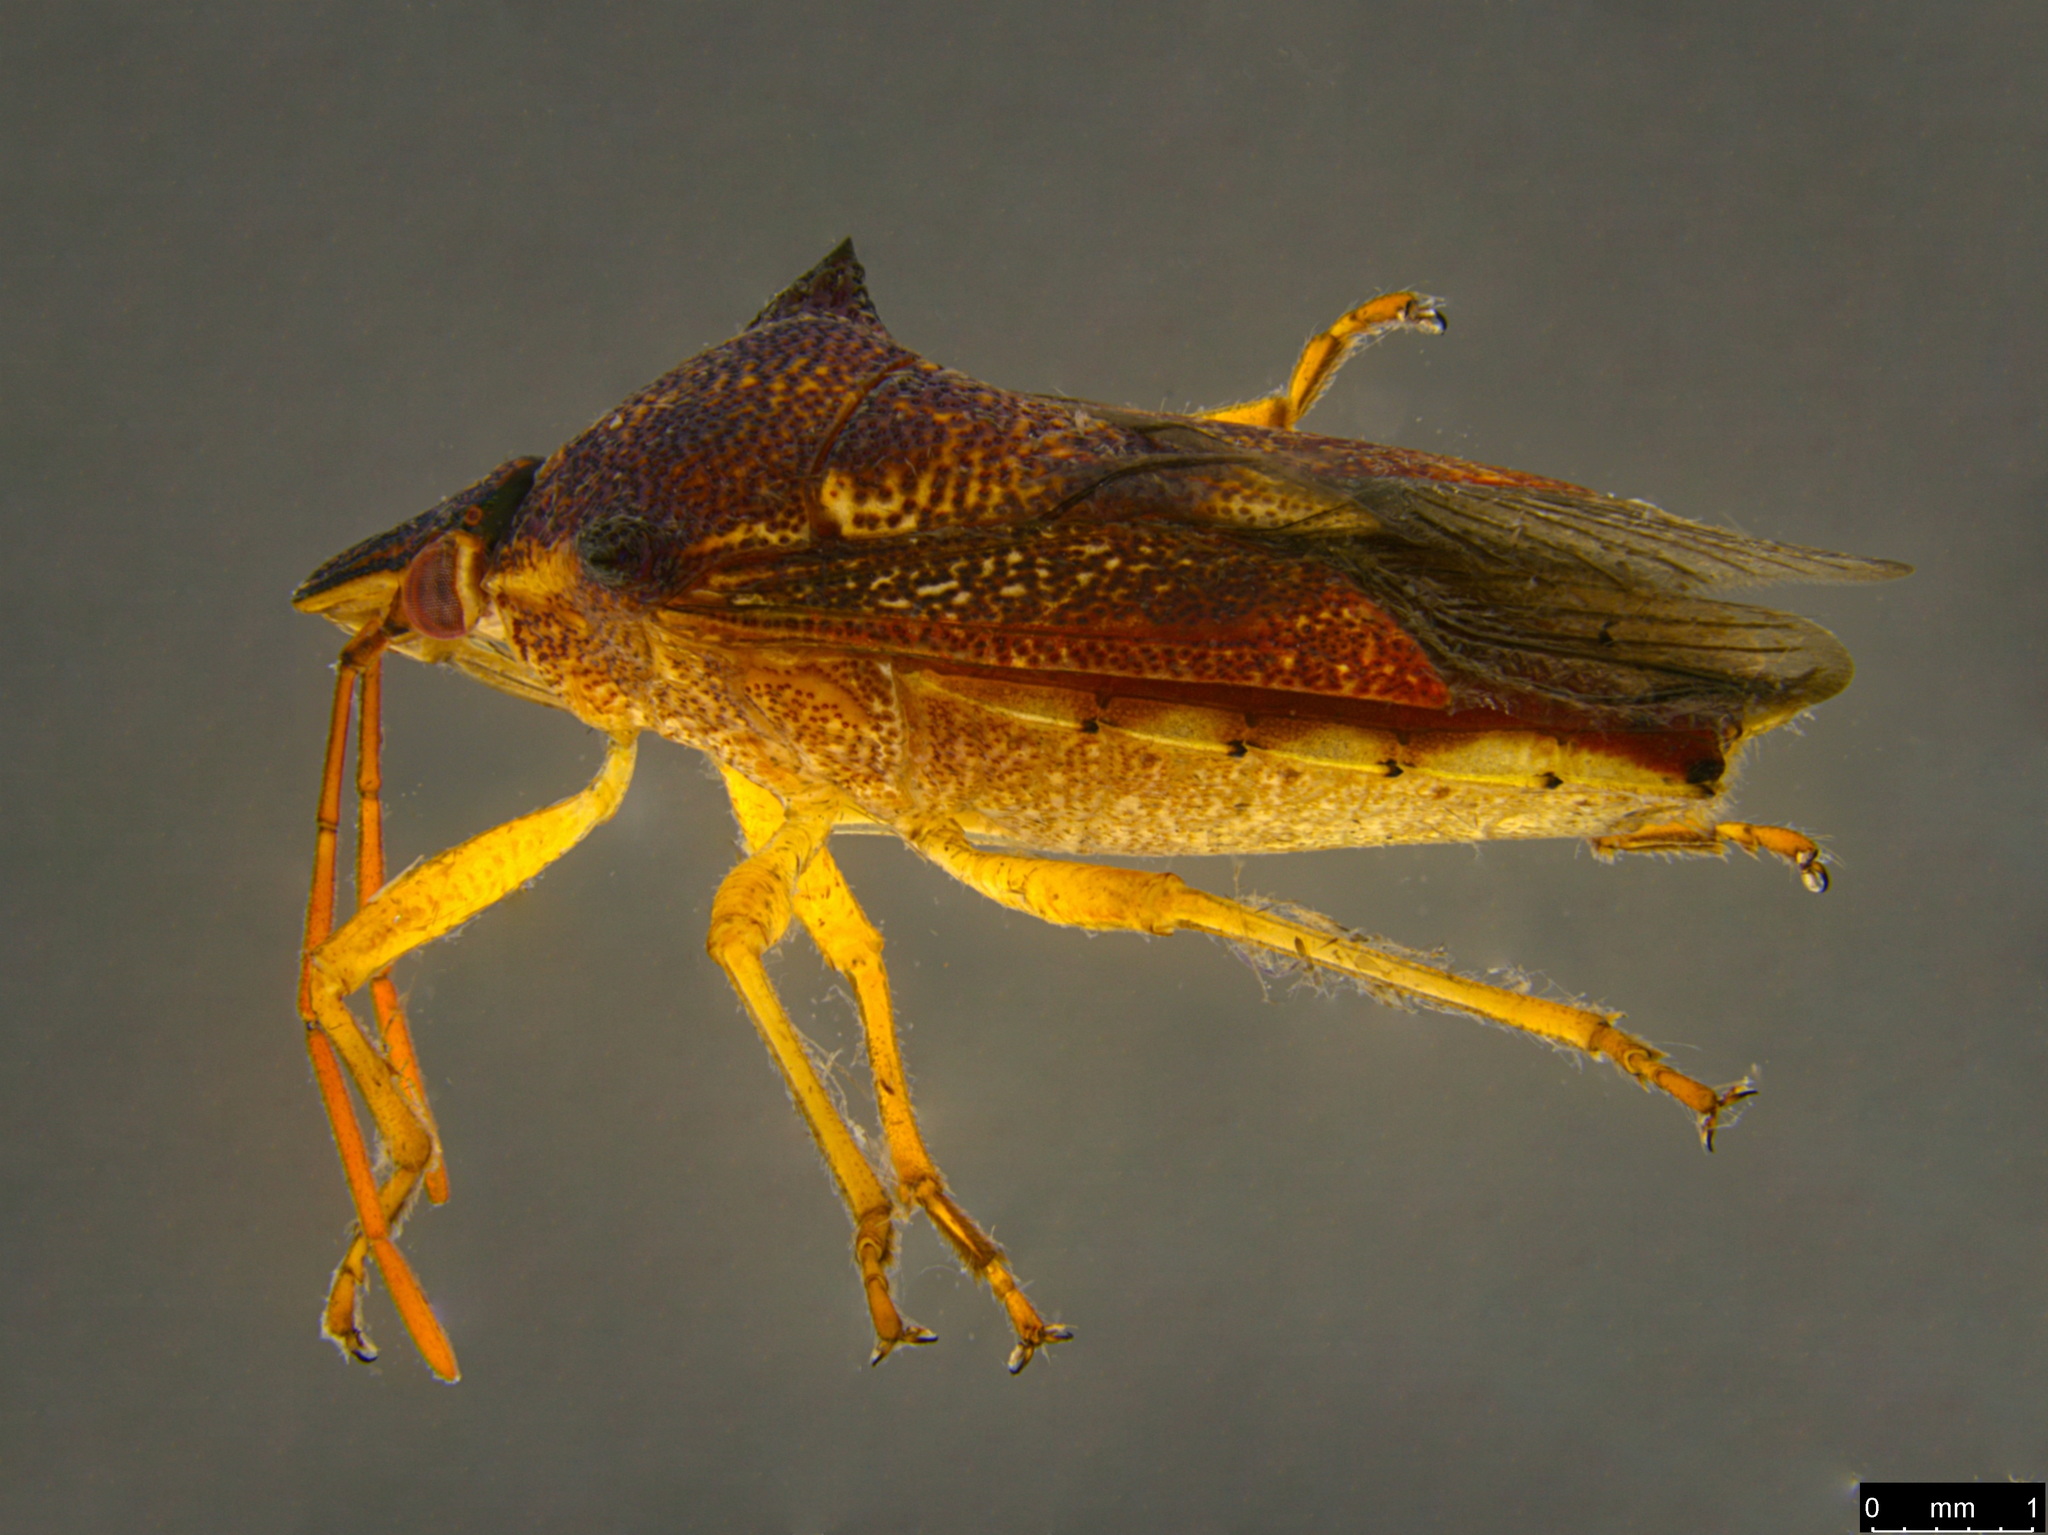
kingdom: Animalia
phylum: Arthropoda
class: Insecta
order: Hemiptera
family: Pentatomidae
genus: Oechalia
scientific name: Oechalia schellenbergii
